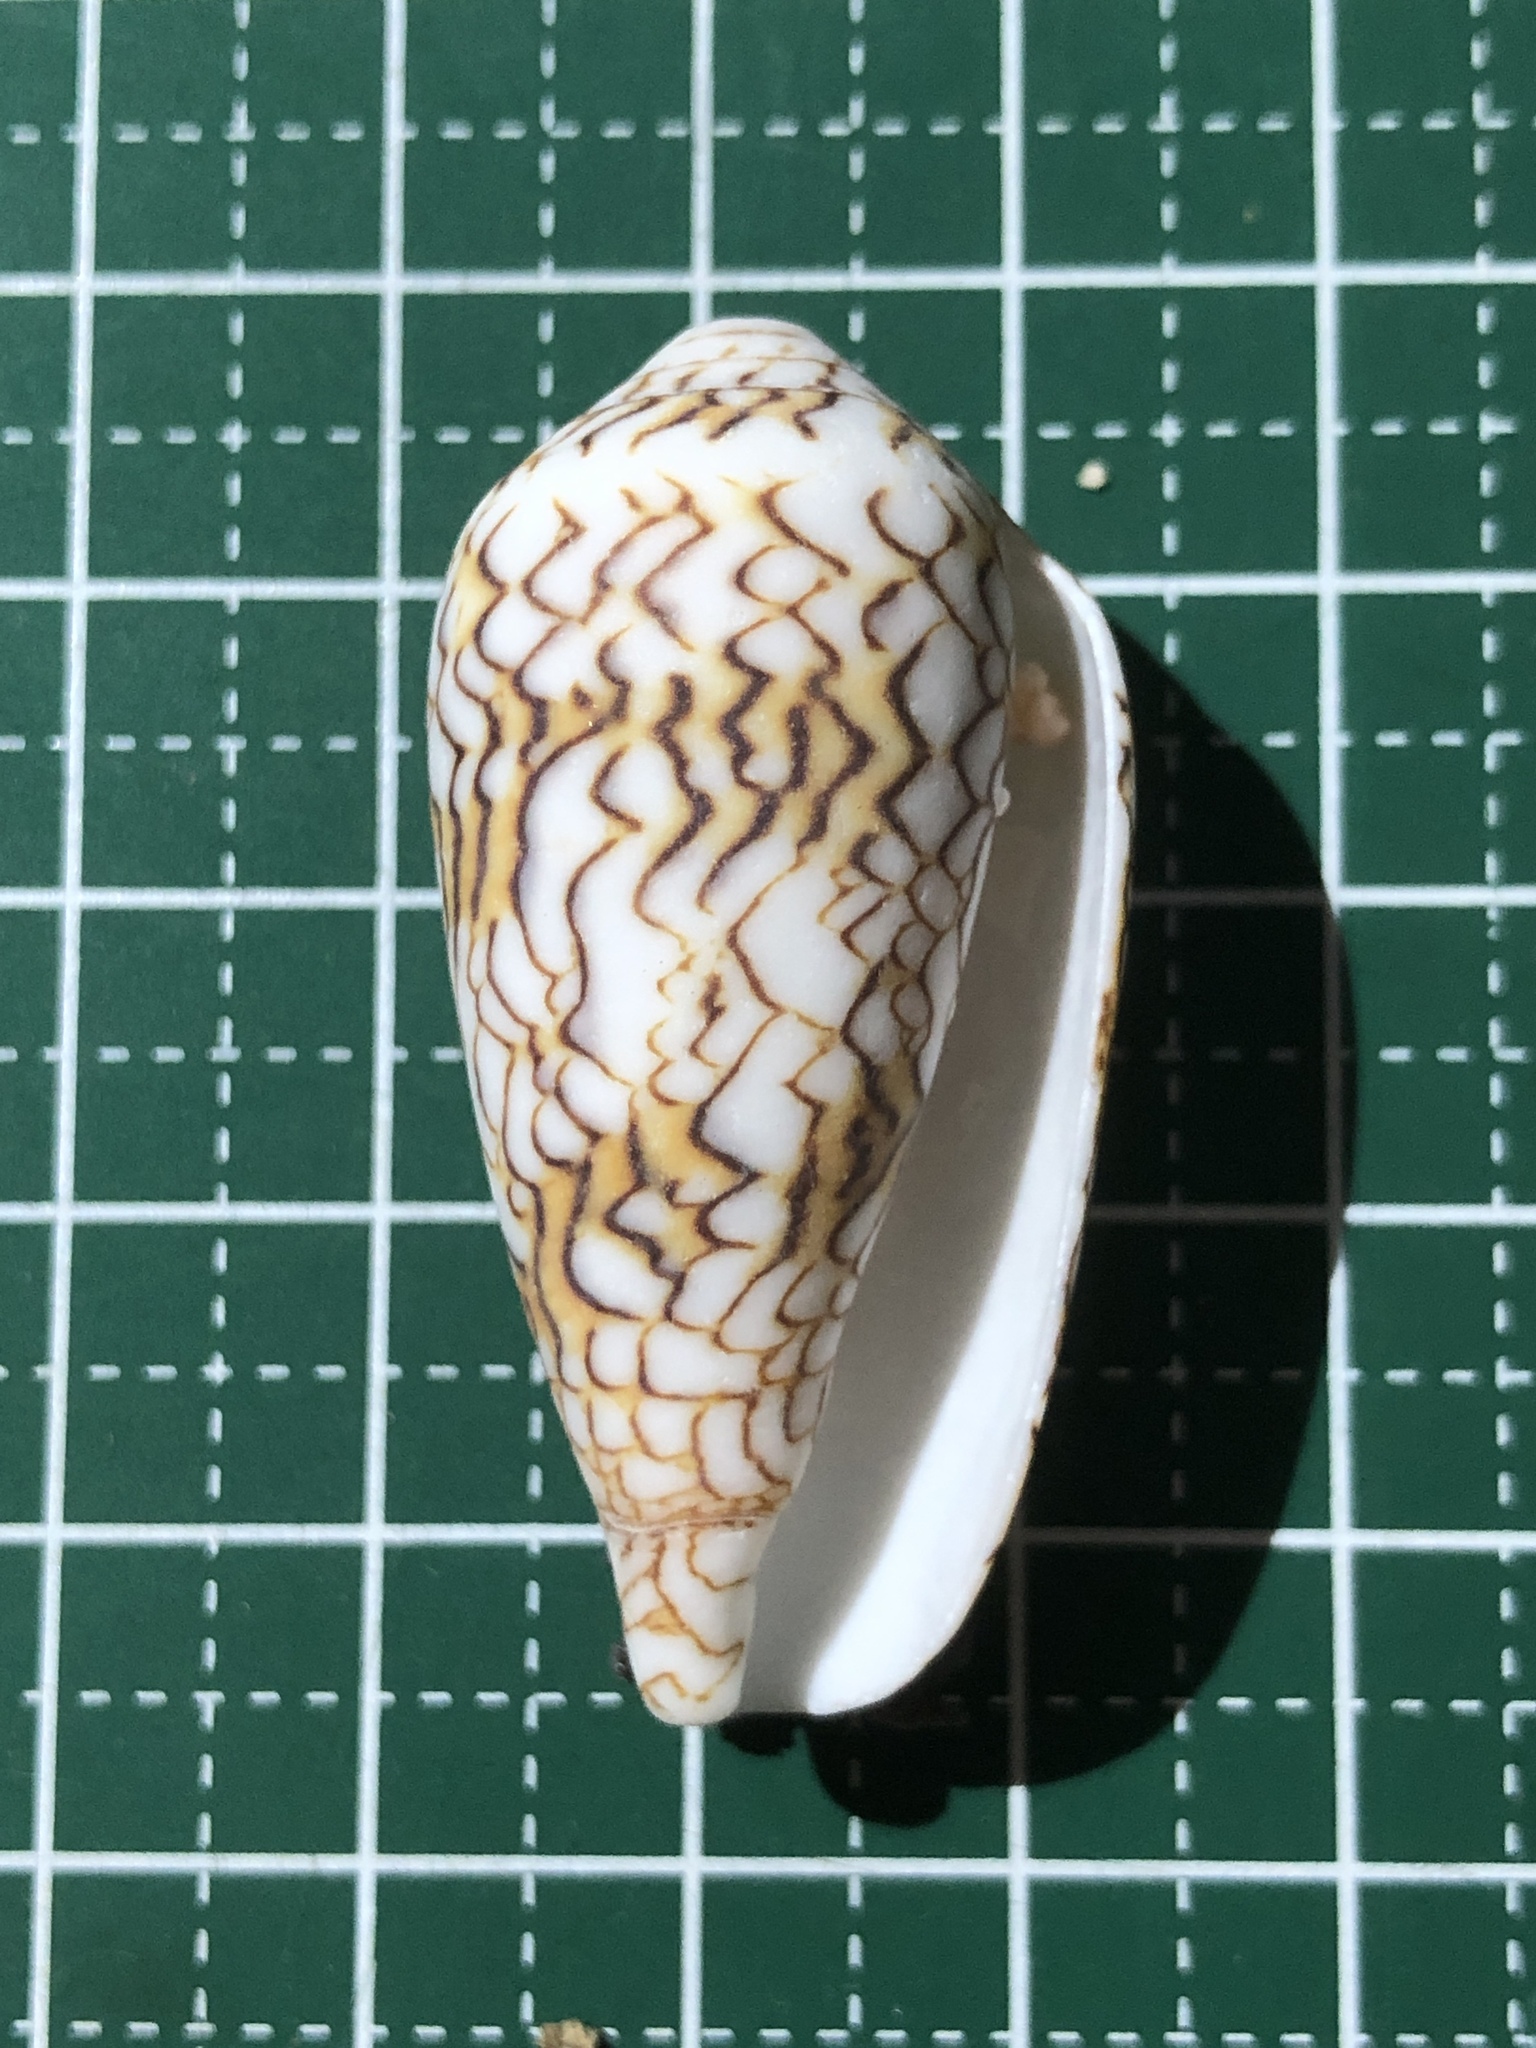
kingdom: Animalia
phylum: Mollusca
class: Gastropoda
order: Neogastropoda
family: Conidae
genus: Conus
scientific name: Conus textile
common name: Cloth-of-gold cone
